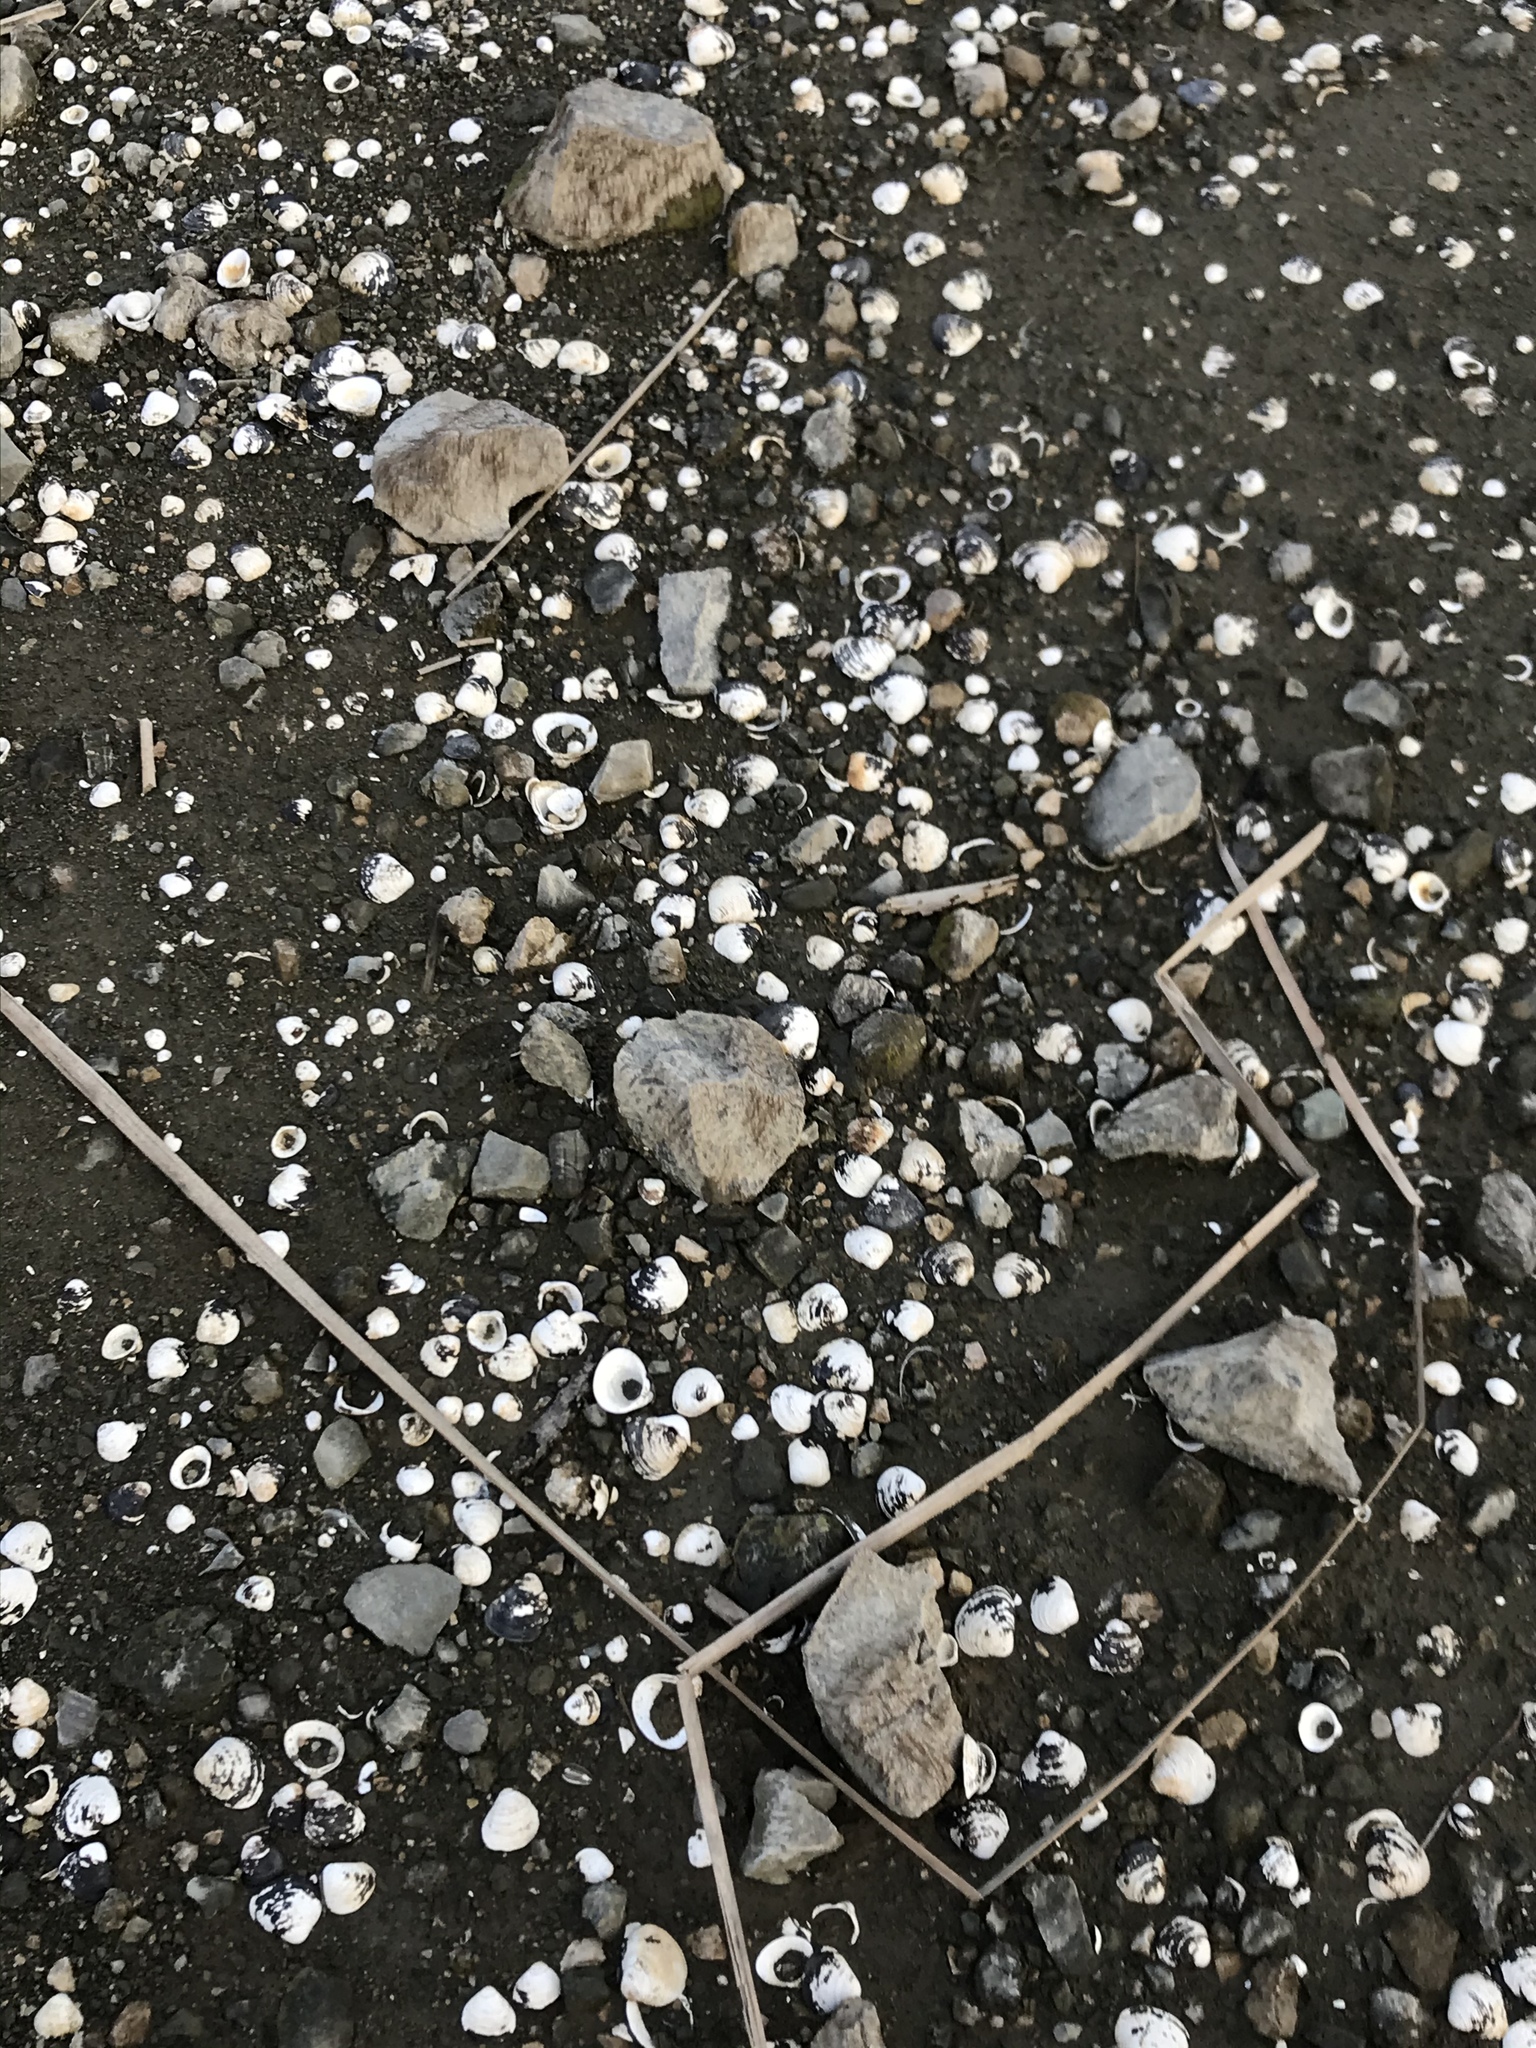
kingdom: Animalia
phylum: Mollusca
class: Bivalvia
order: Venerida
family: Cyrenidae
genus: Corbicula
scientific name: Corbicula fluminea
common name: Asian clam
